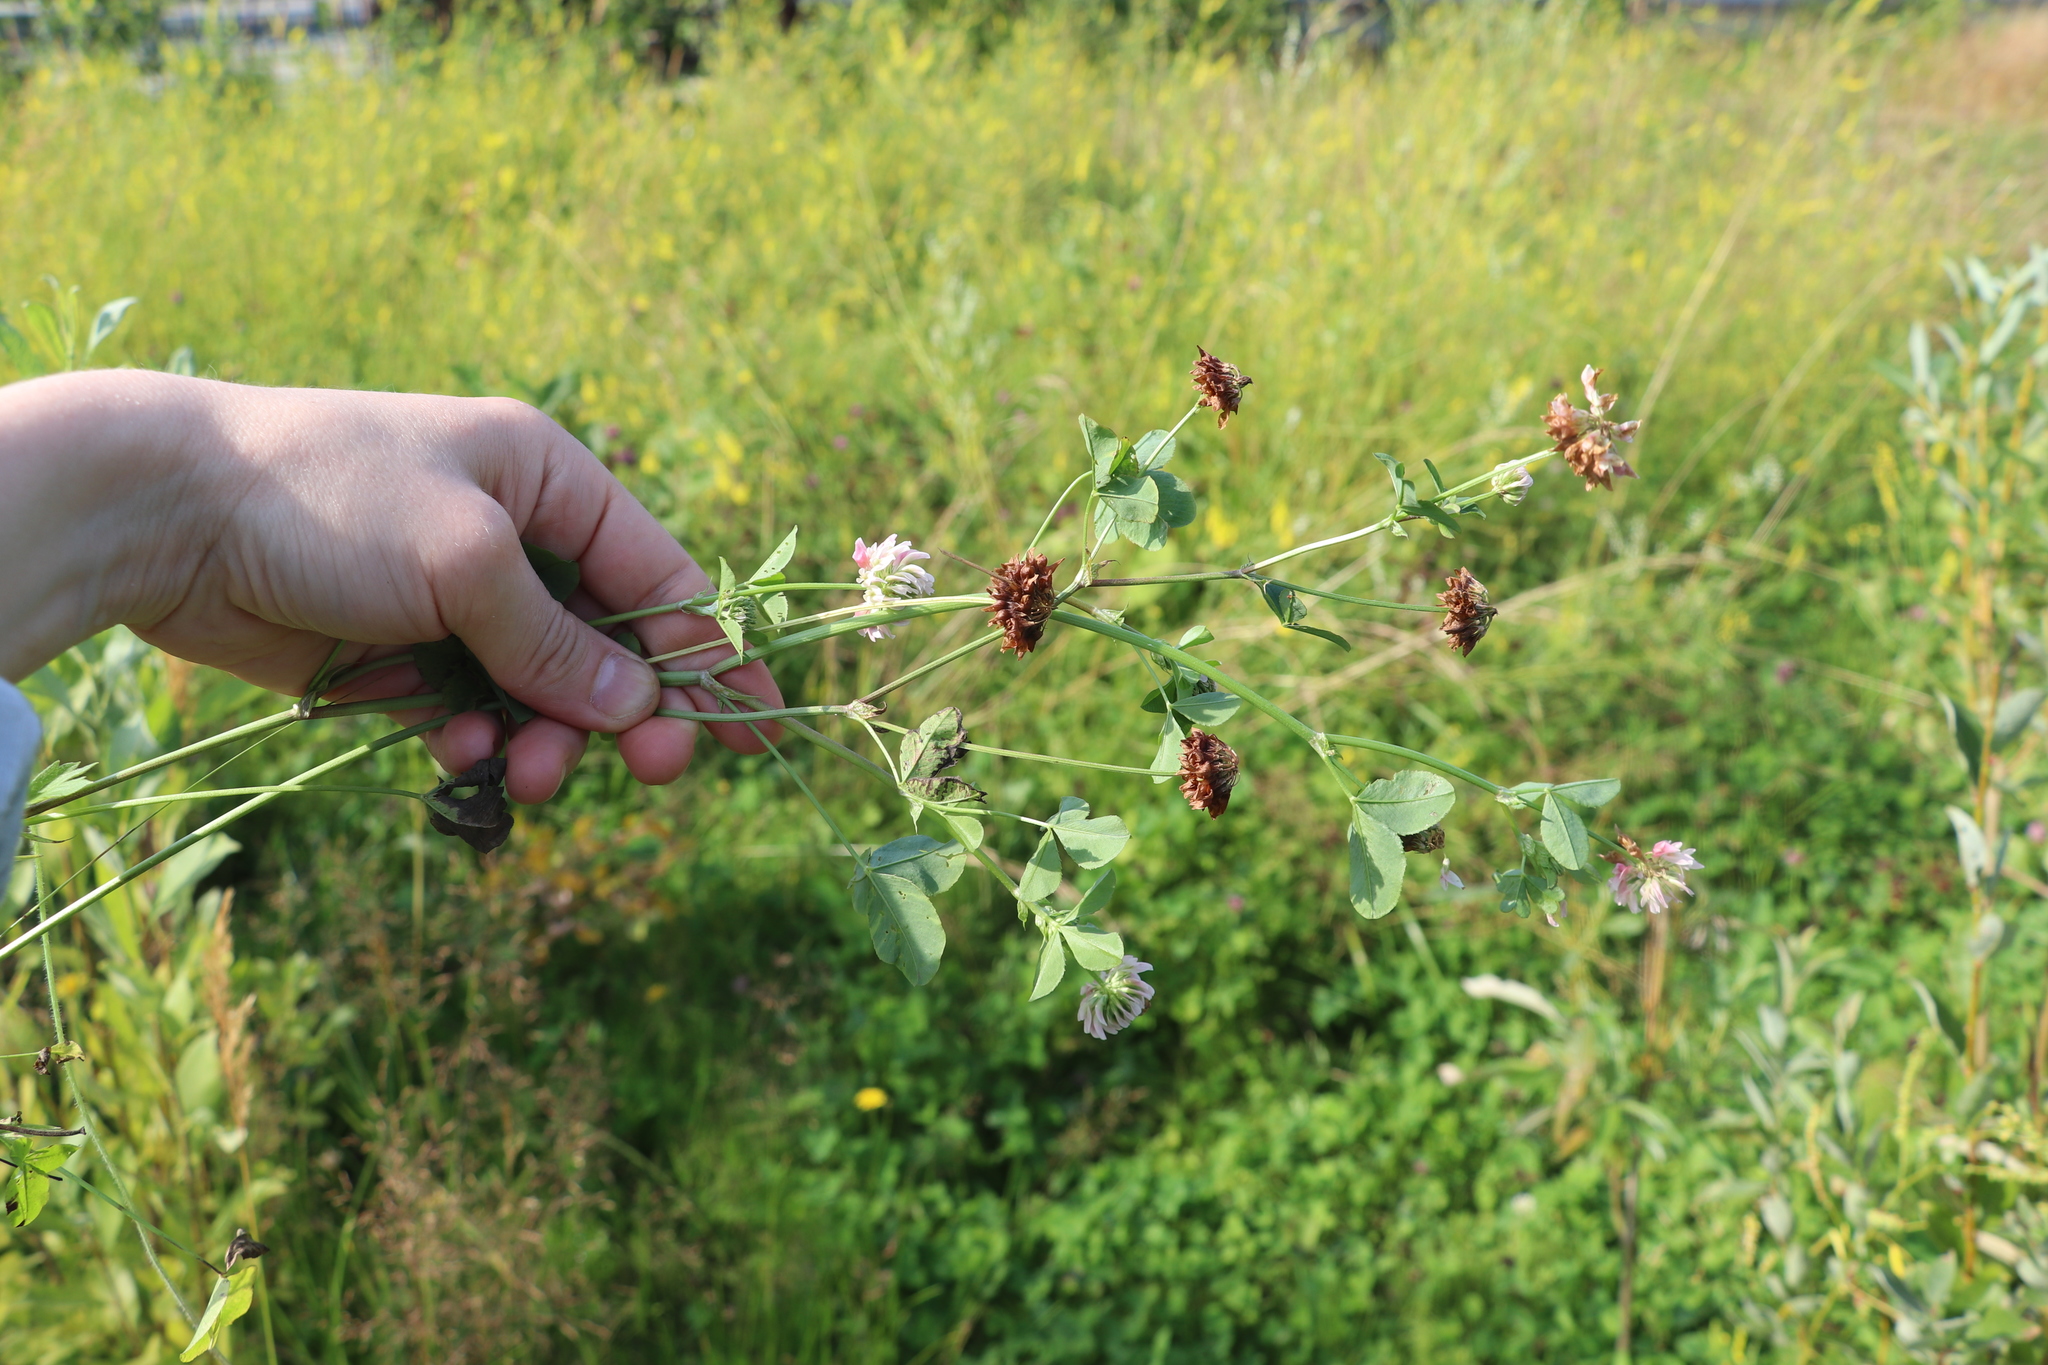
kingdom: Plantae
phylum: Tracheophyta
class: Magnoliopsida
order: Fabales
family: Fabaceae
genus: Trifolium
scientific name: Trifolium hybridum
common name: Alsike clover
